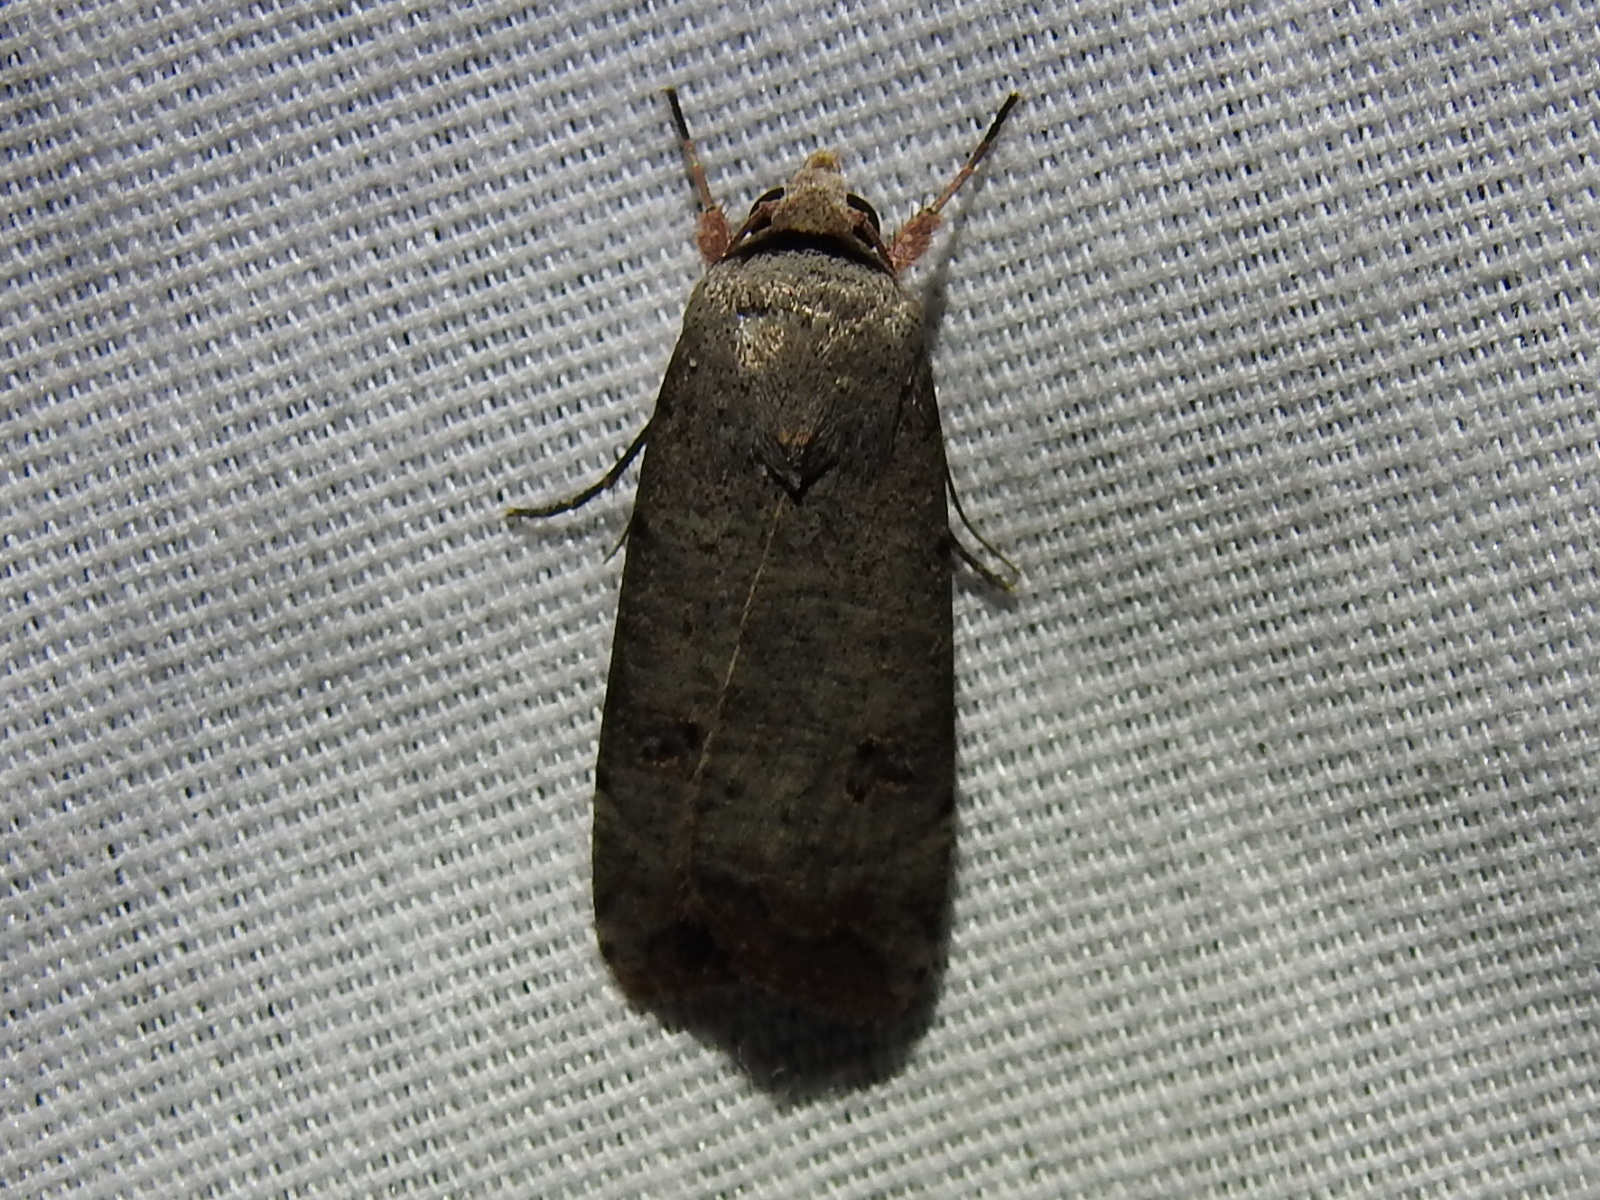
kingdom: Animalia
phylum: Arthropoda
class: Insecta
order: Lepidoptera
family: Noctuidae
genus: Anicla
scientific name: Anicla infecta
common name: Green cutworm
